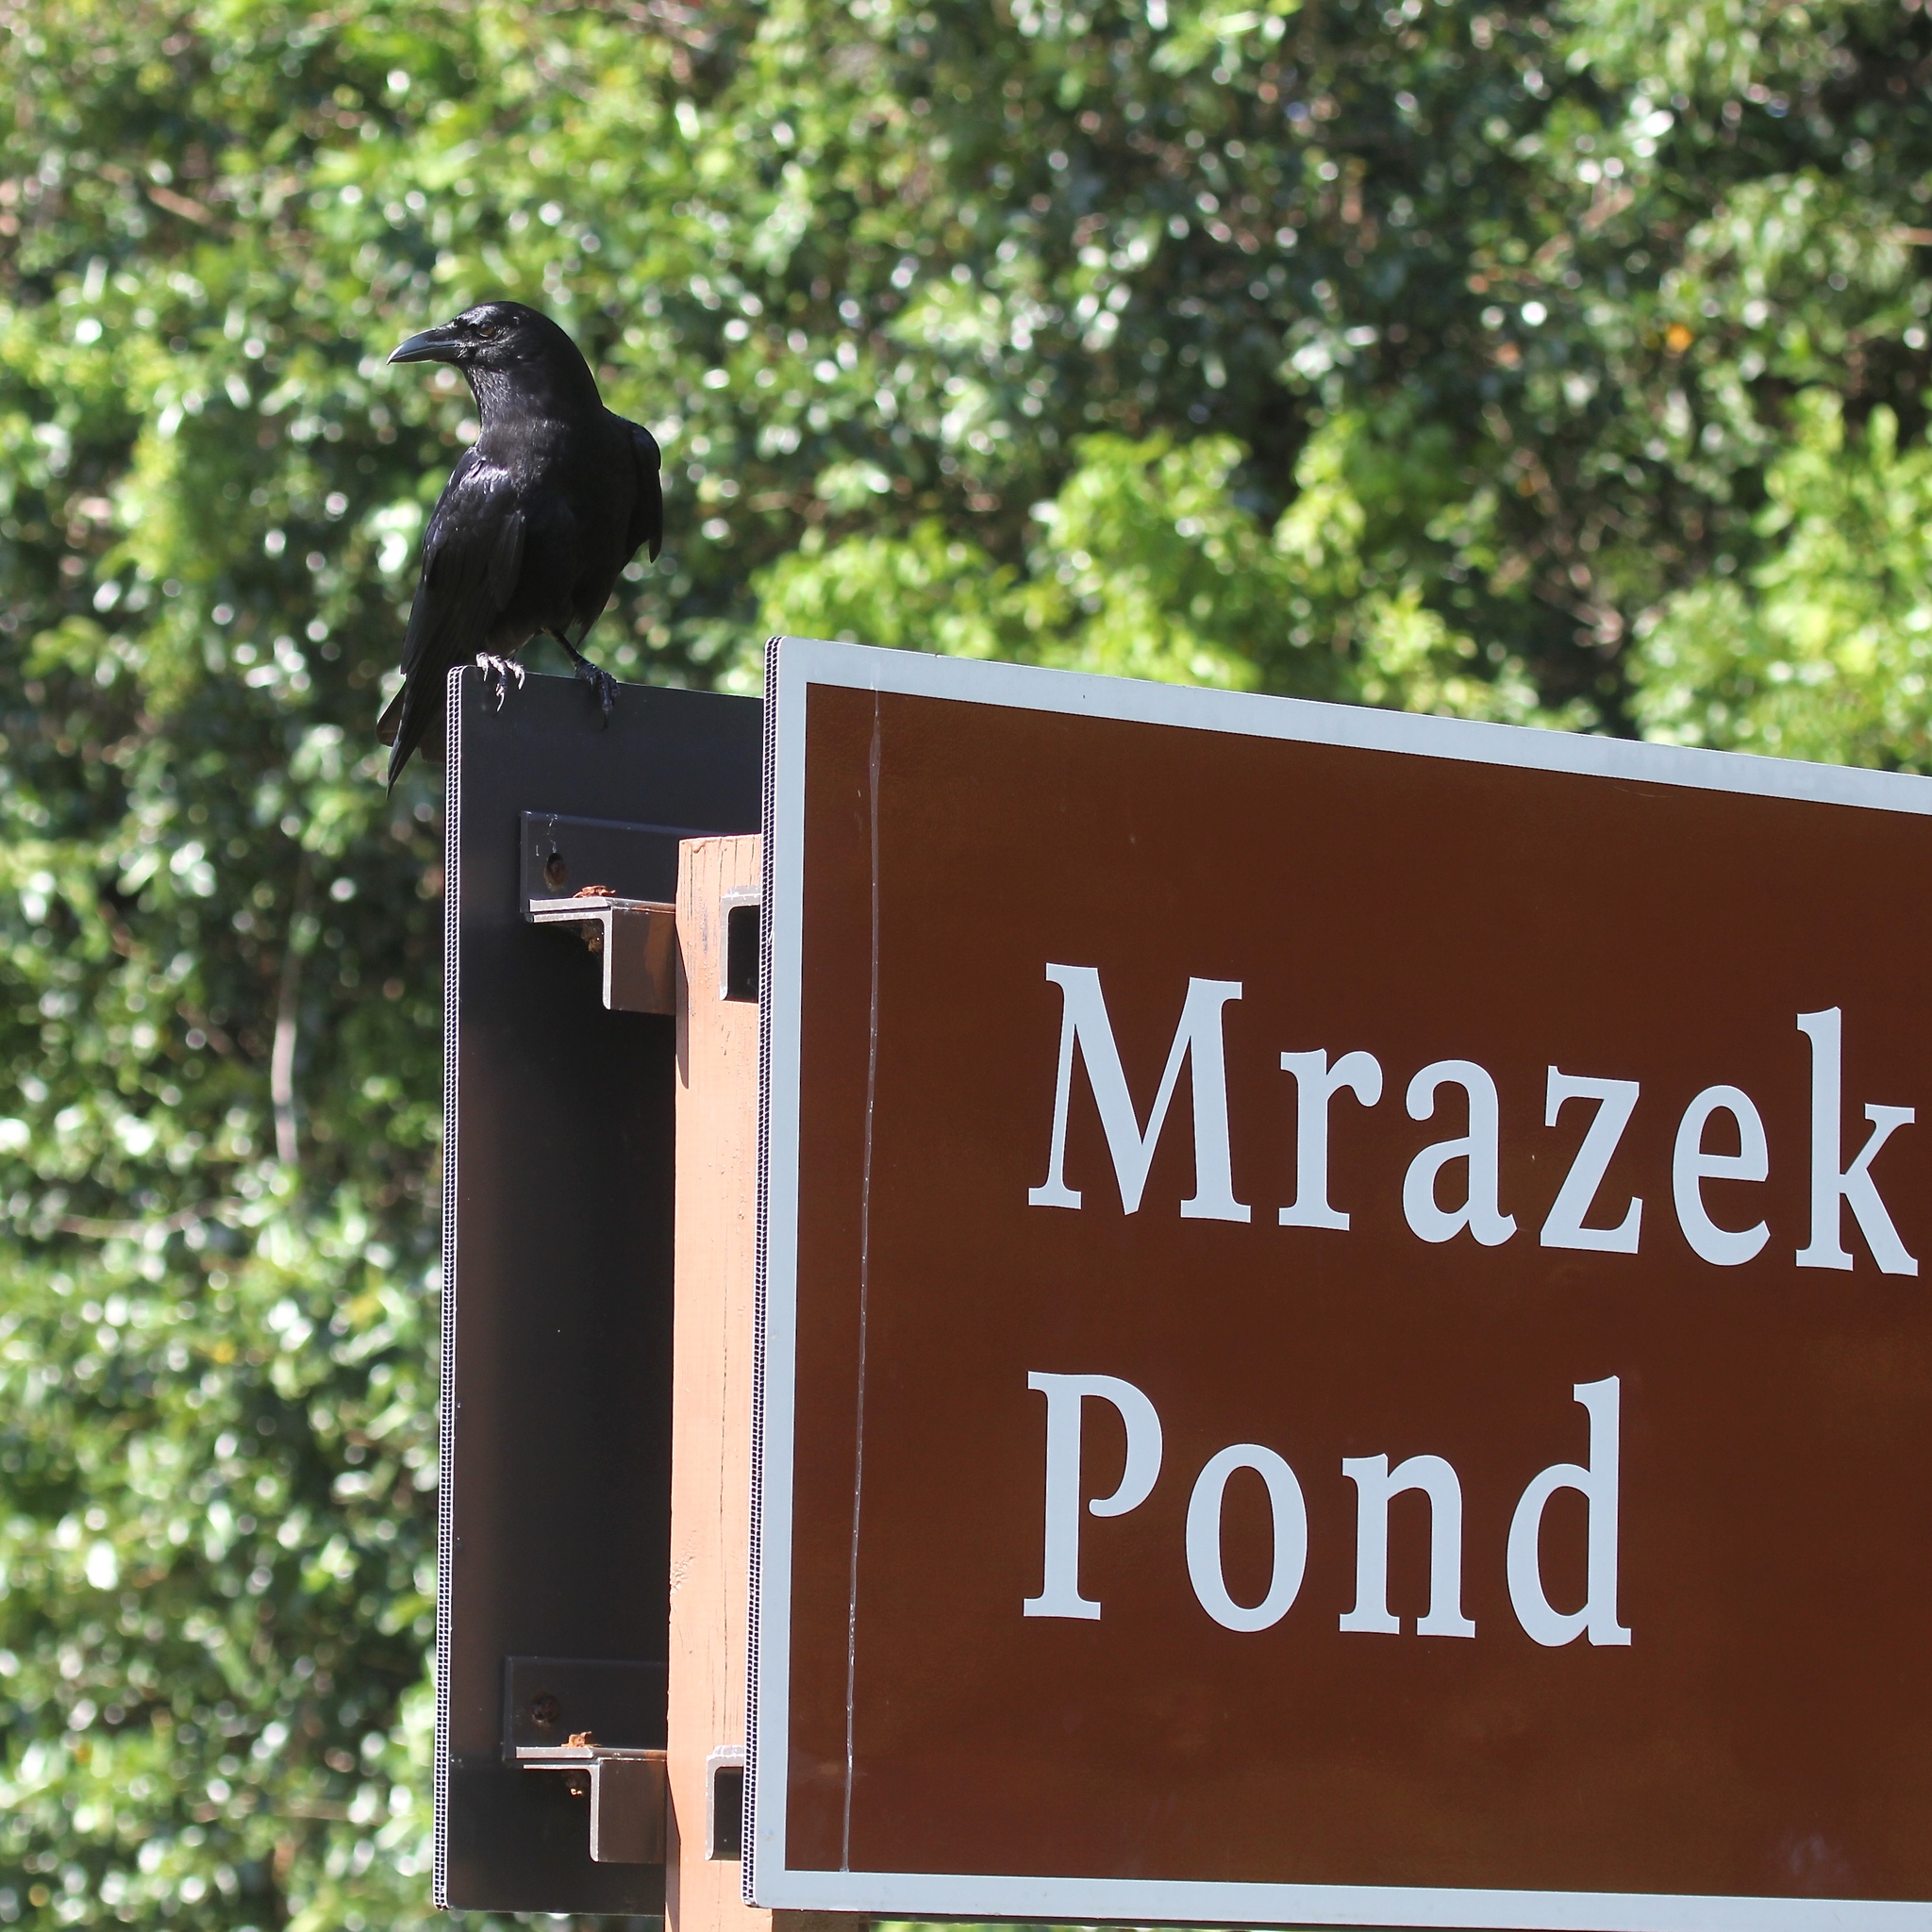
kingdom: Animalia
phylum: Chordata
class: Aves
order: Passeriformes
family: Corvidae
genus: Corvus
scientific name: Corvus brachyrhynchos
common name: American crow
